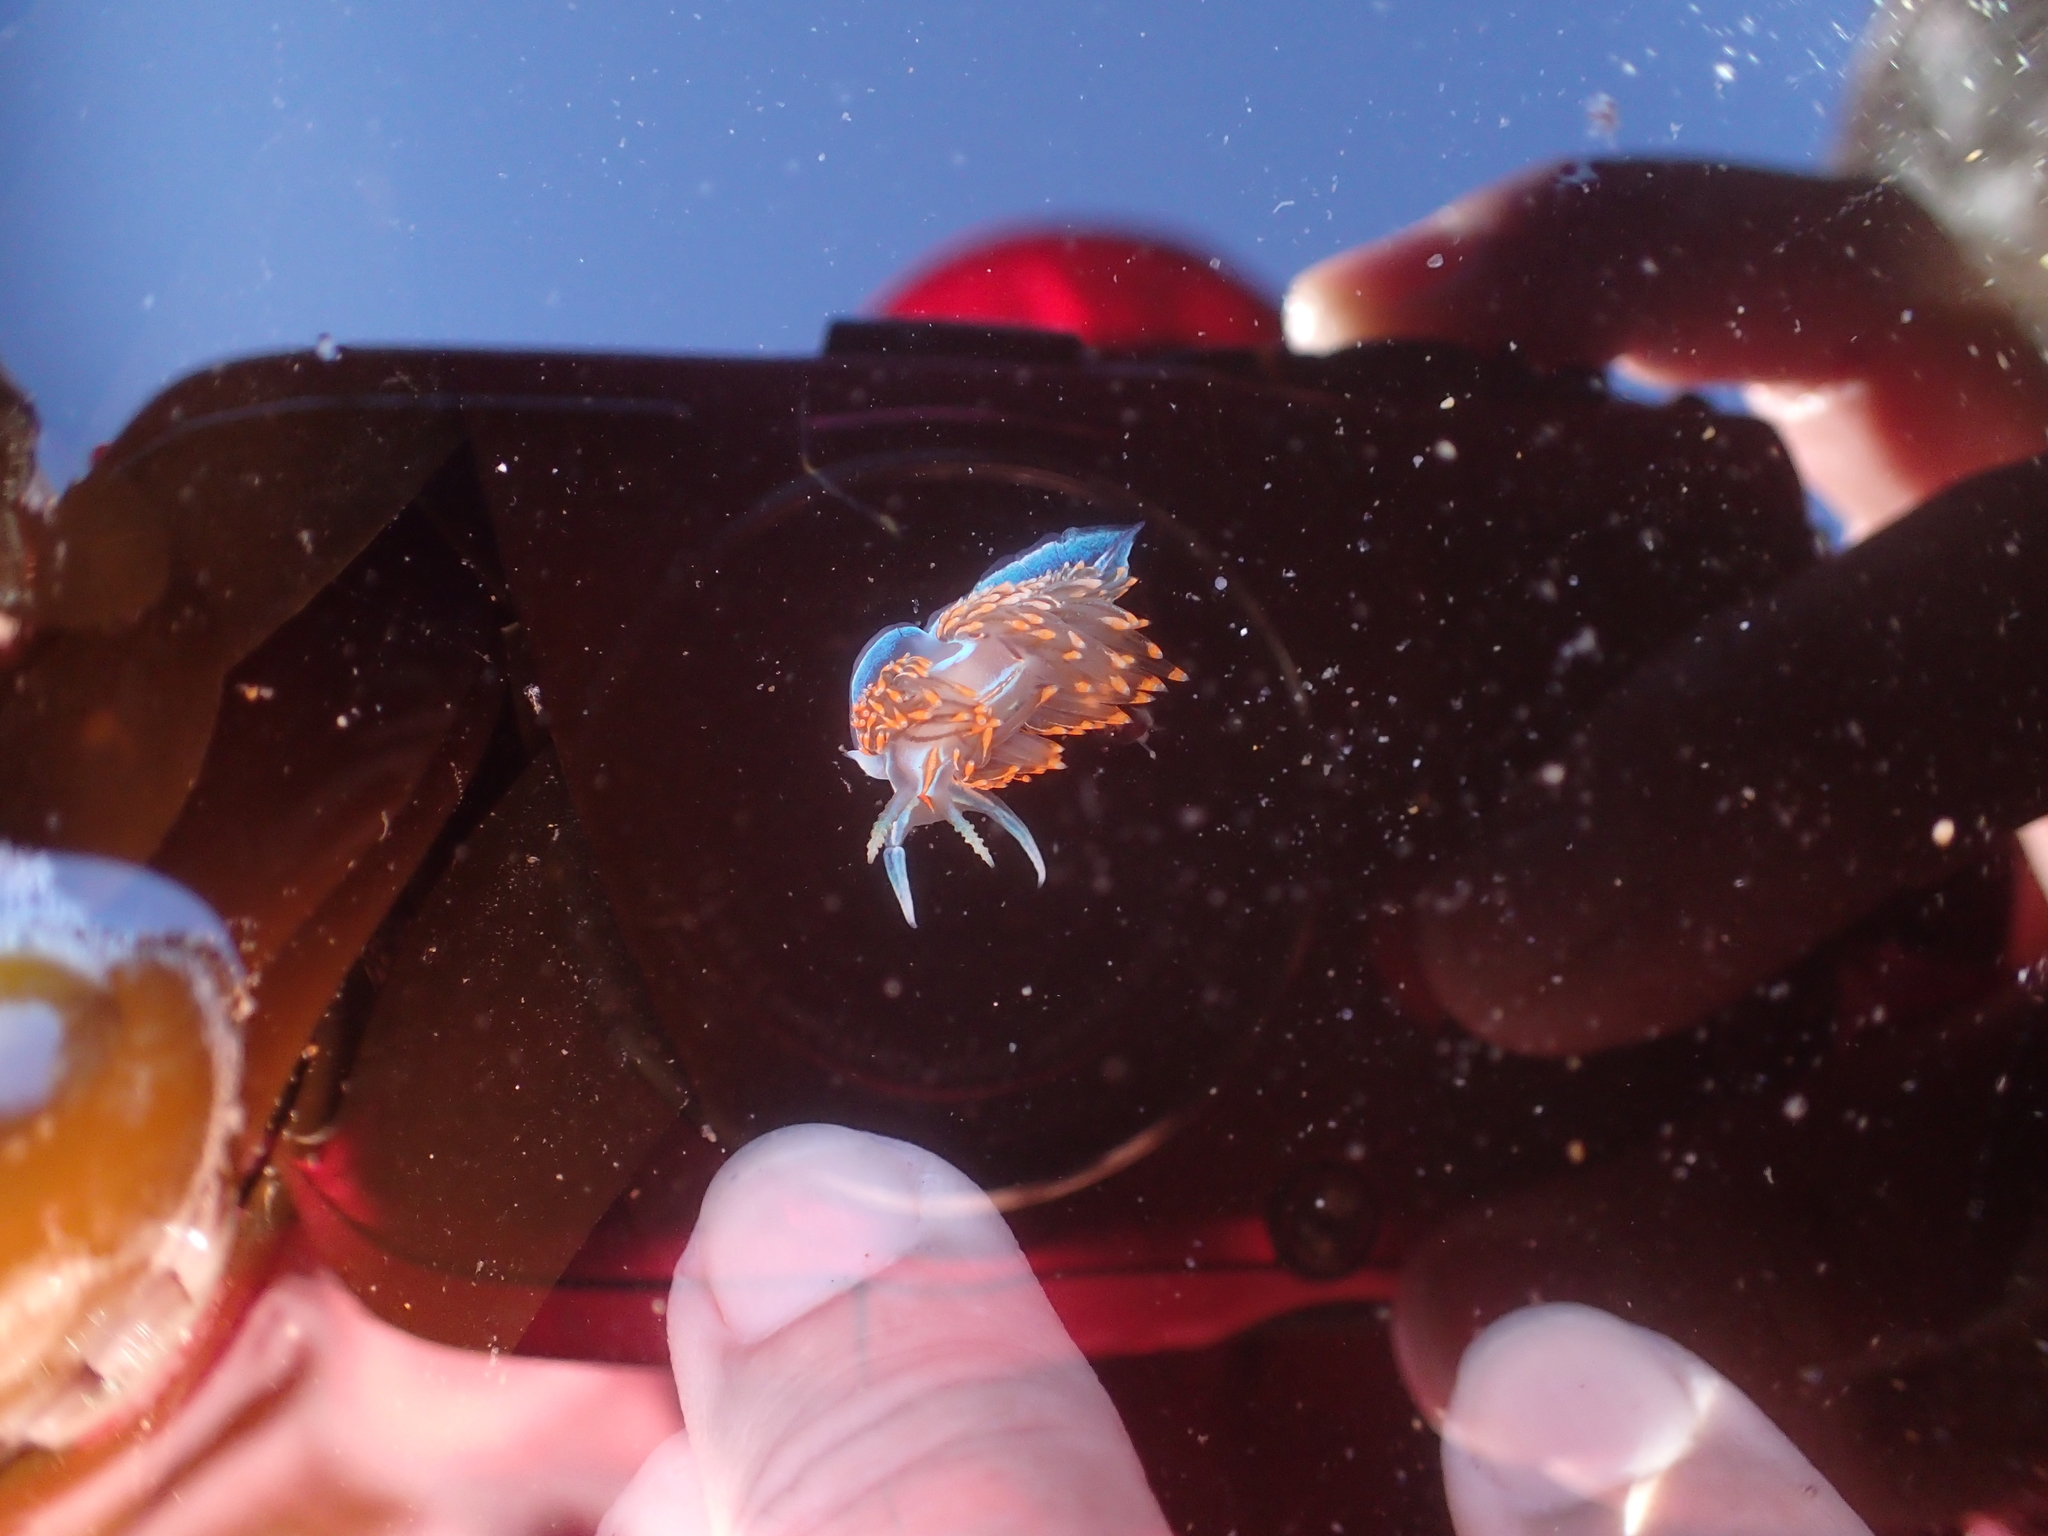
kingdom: Animalia
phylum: Mollusca
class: Gastropoda
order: Nudibranchia
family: Myrrhinidae
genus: Hermissenda
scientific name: Hermissenda opalescens
